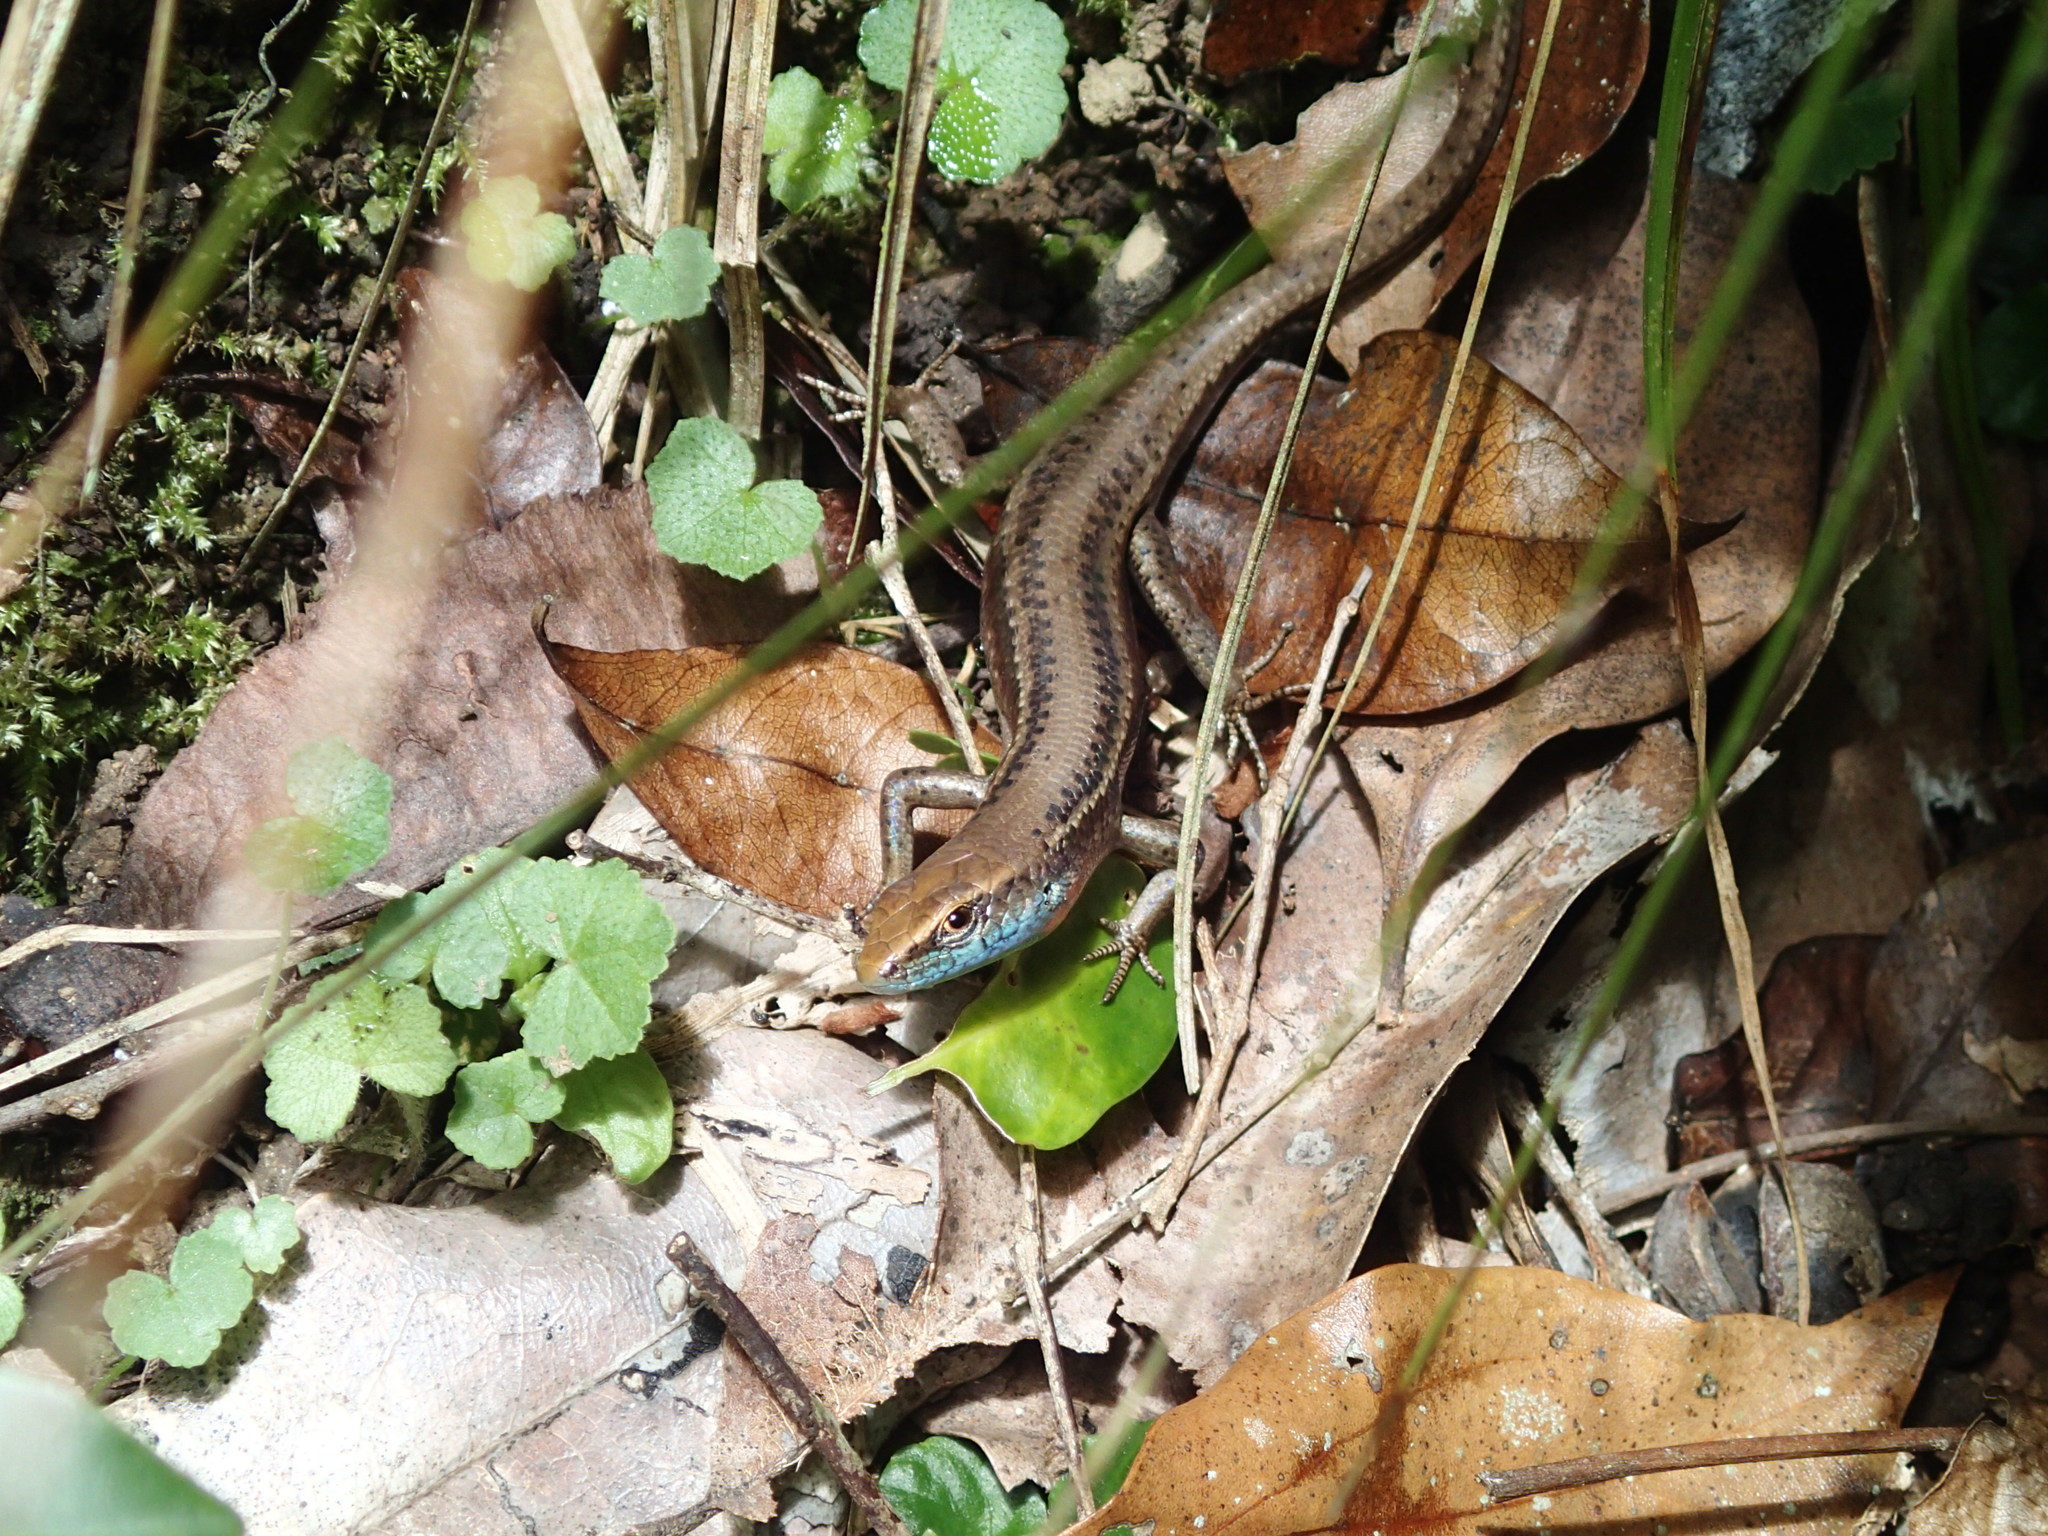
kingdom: Animalia
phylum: Chordata
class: Squamata
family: Scincidae
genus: Carlia
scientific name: Carlia rhomboidalis
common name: Blue-throated rainbow-skink
